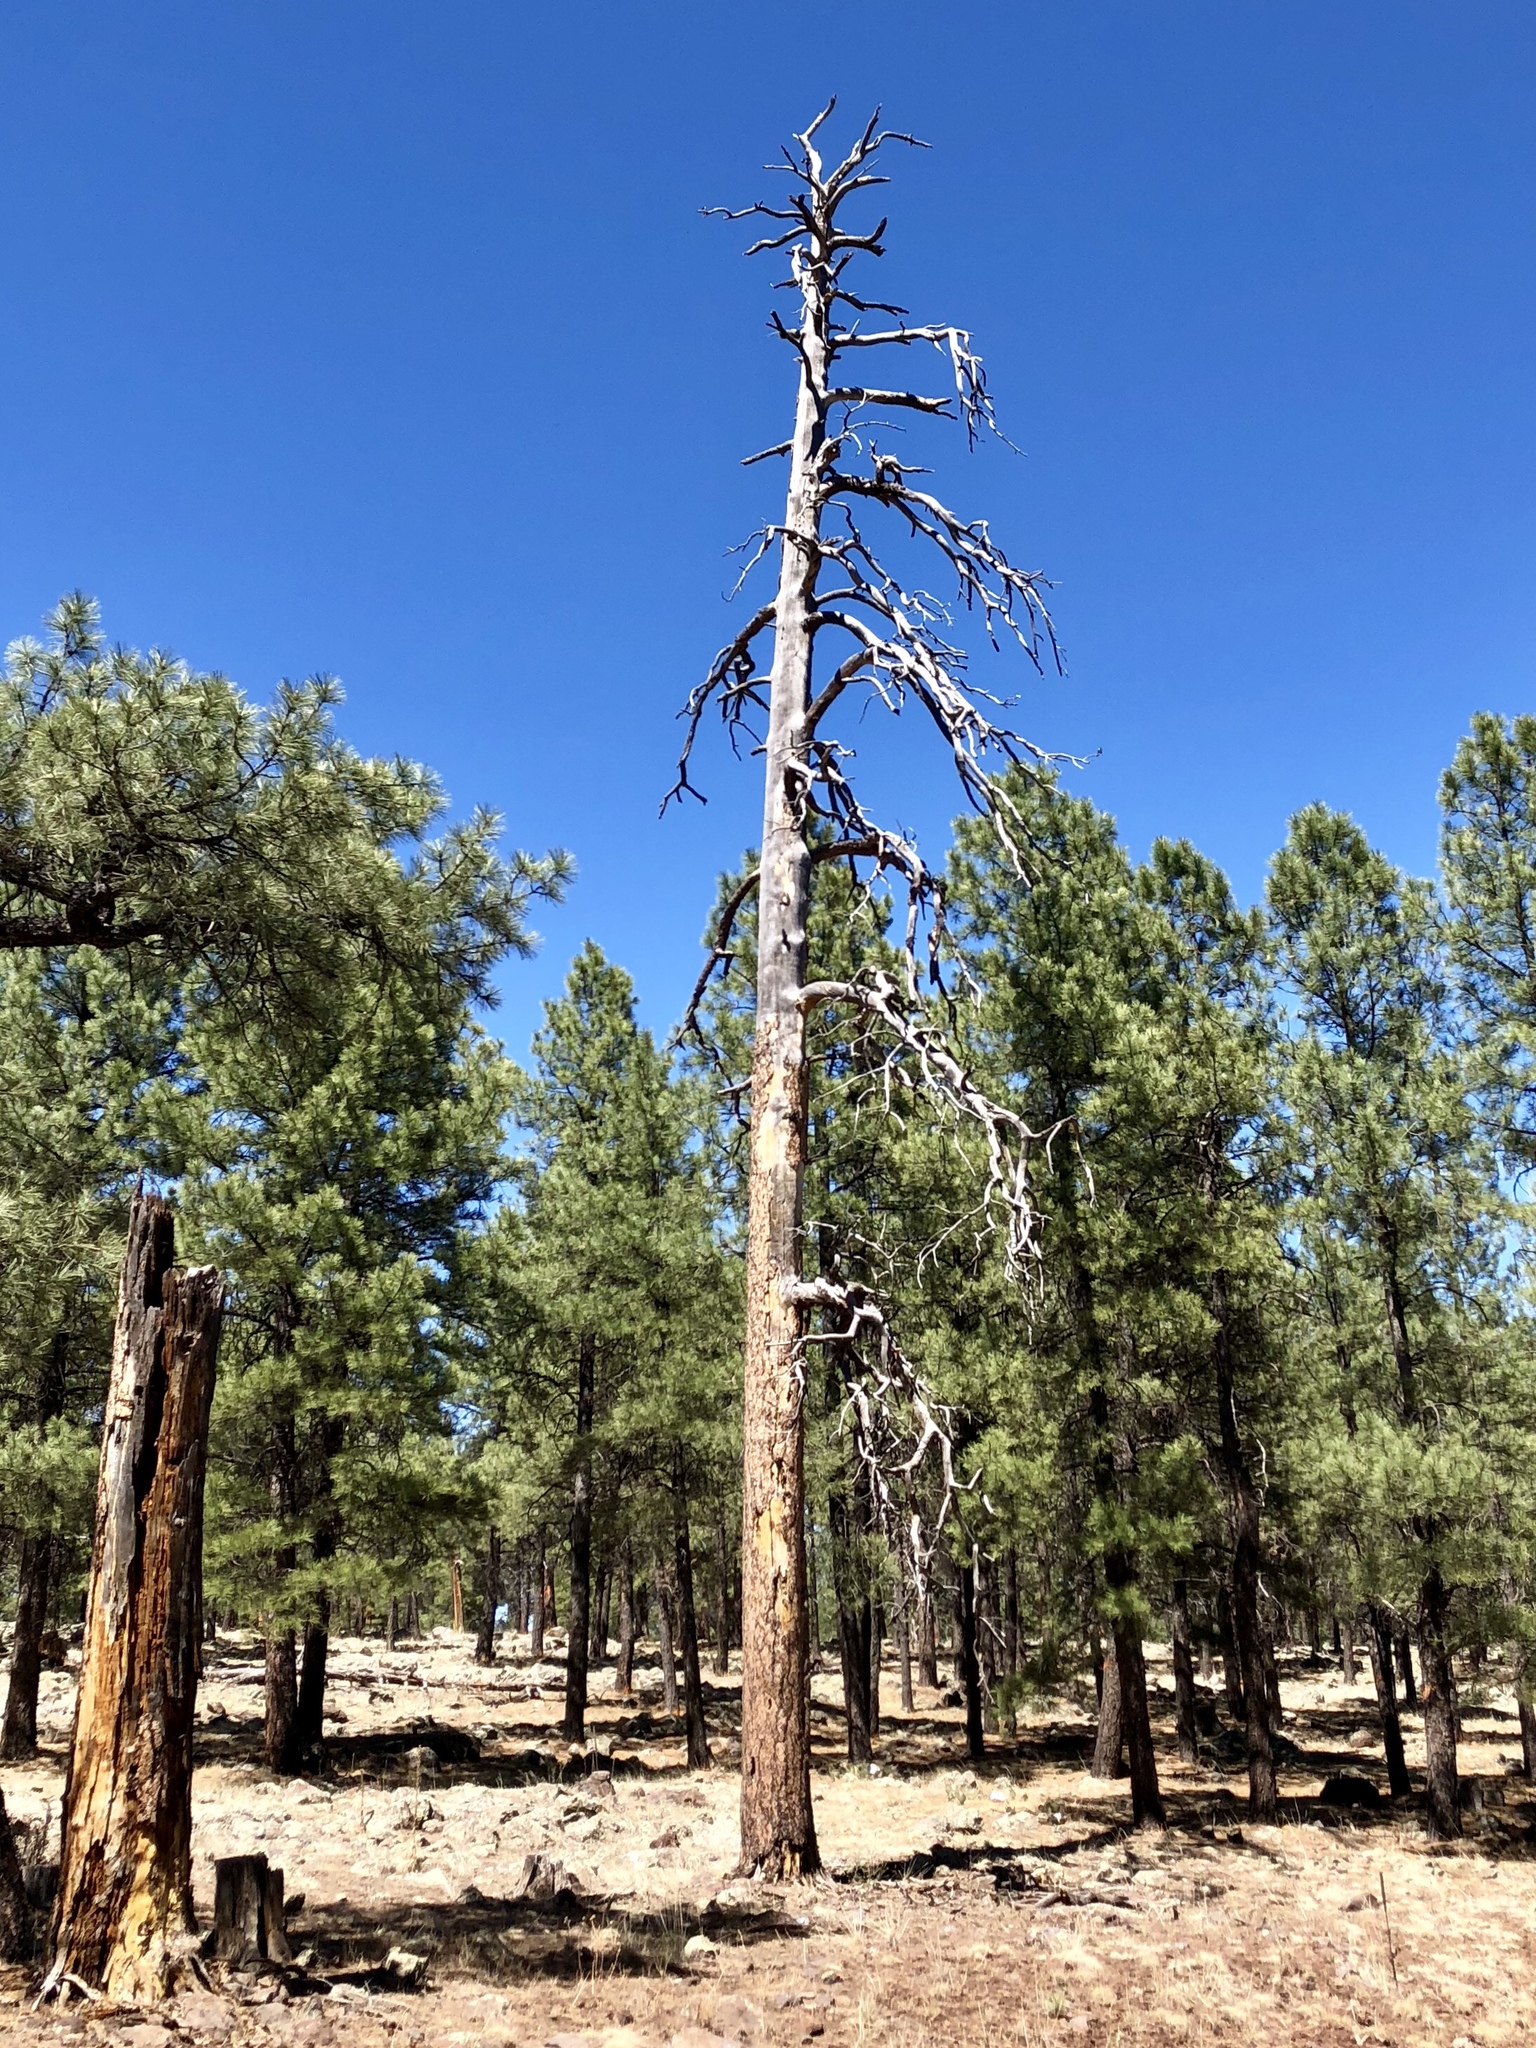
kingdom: Plantae
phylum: Tracheophyta
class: Pinopsida
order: Pinales
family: Pinaceae
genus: Pinus
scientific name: Pinus ponderosa
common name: Western yellow-pine
